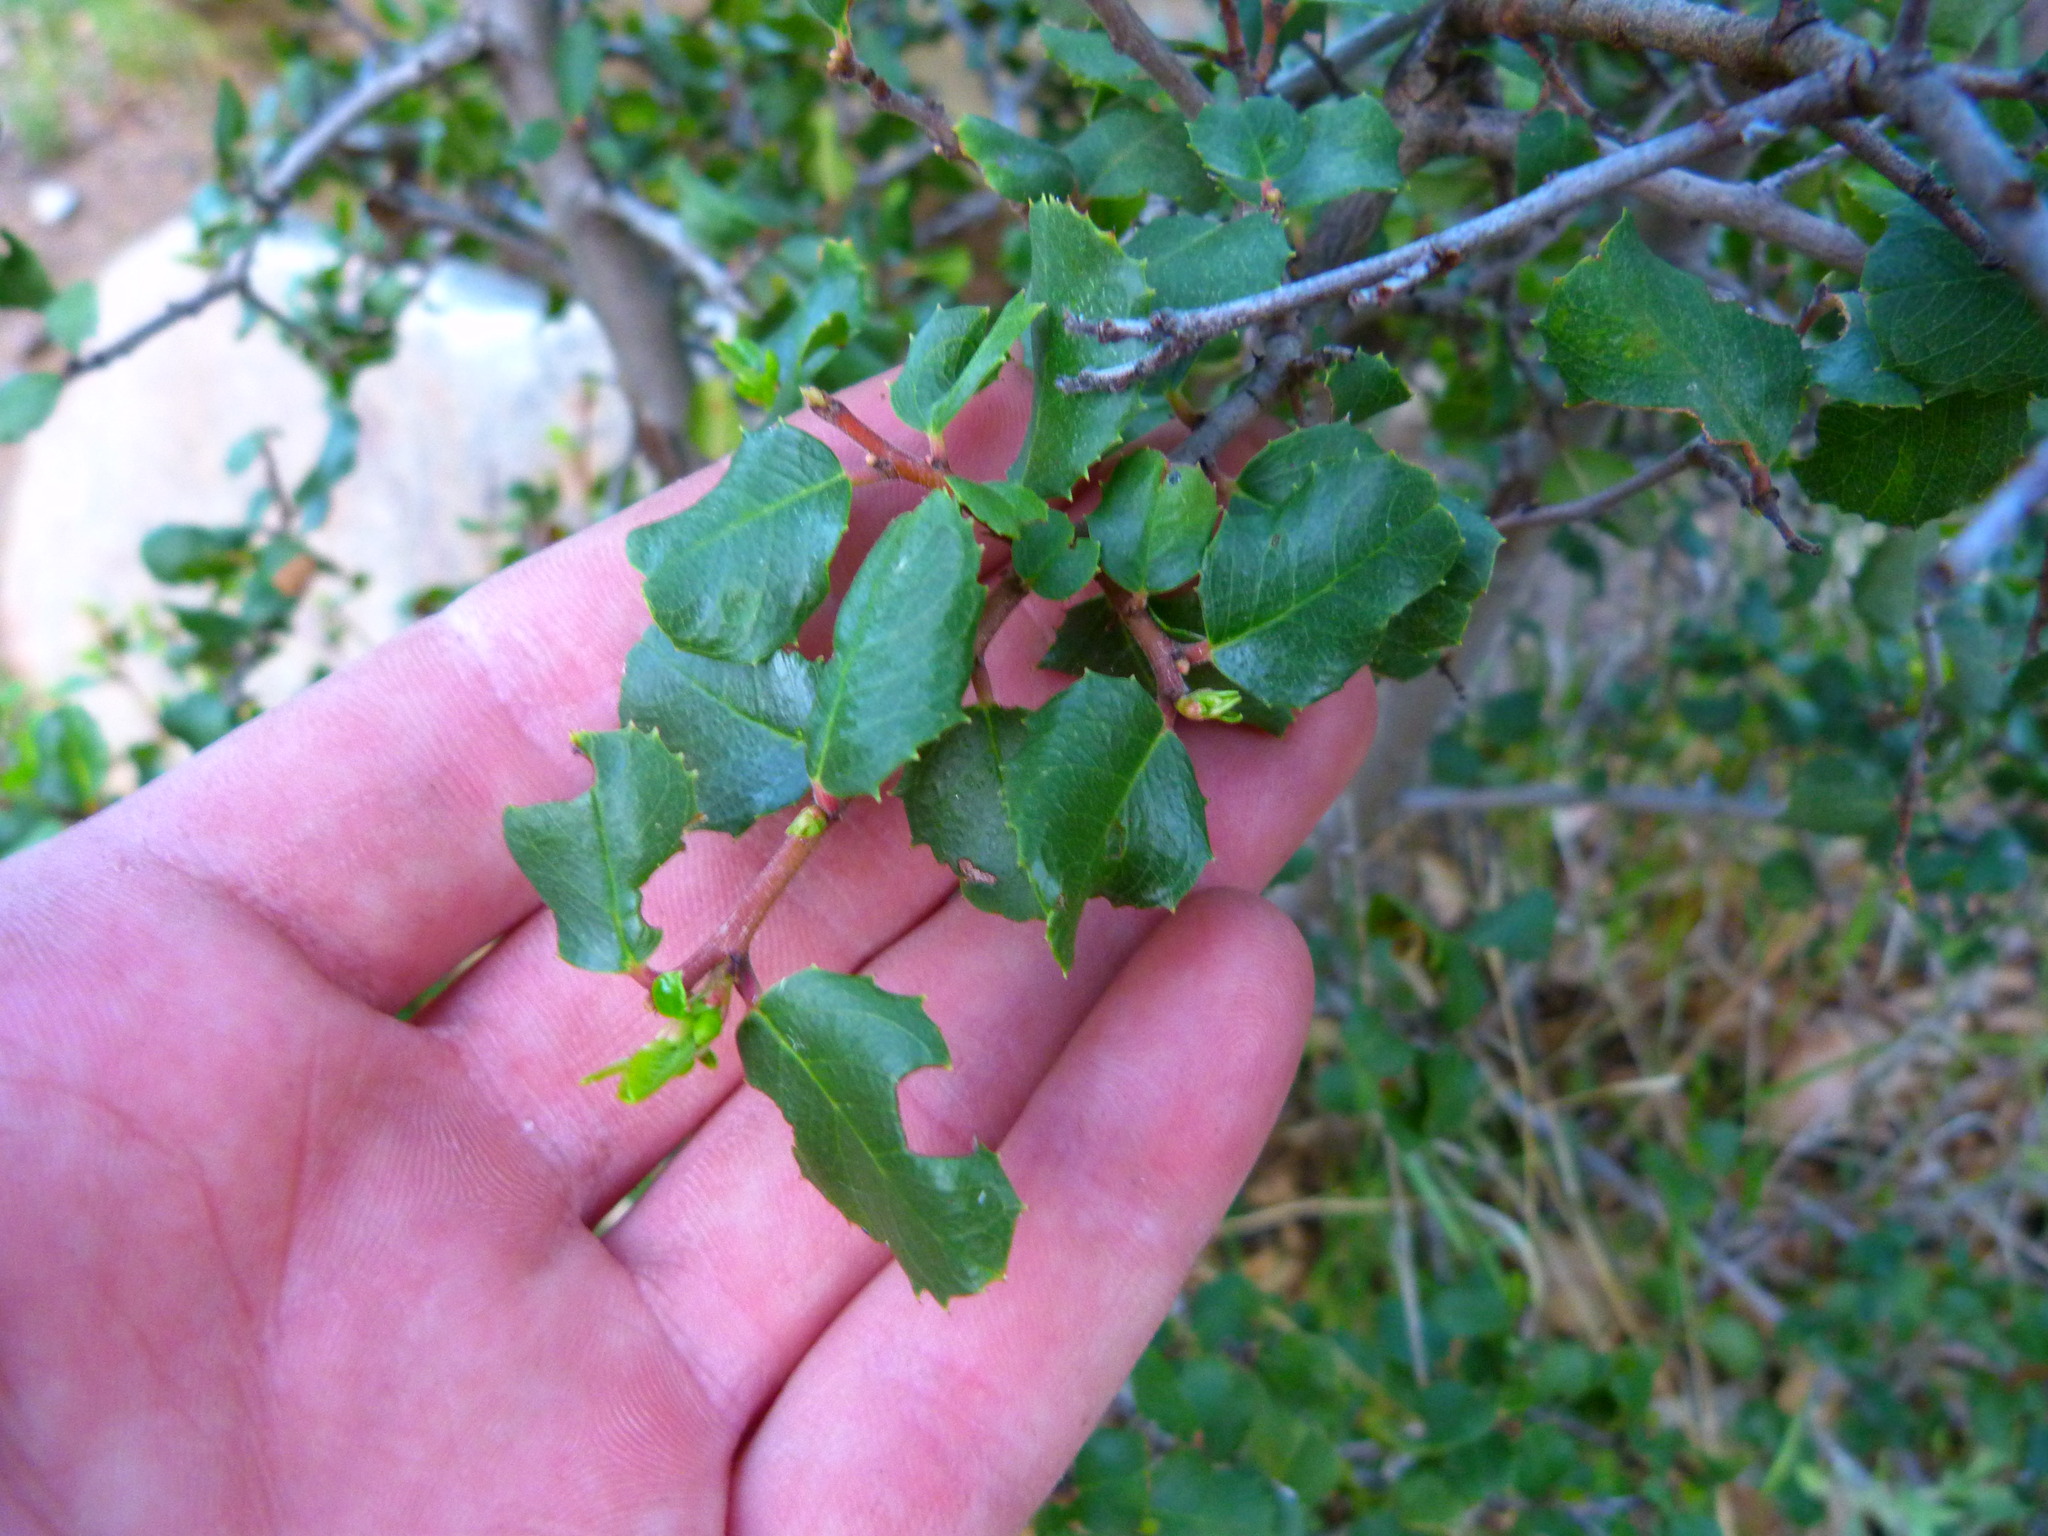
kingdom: Plantae
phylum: Tracheophyta
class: Magnoliopsida
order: Rosales
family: Rhamnaceae
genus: Endotropis
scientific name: Endotropis crocea
